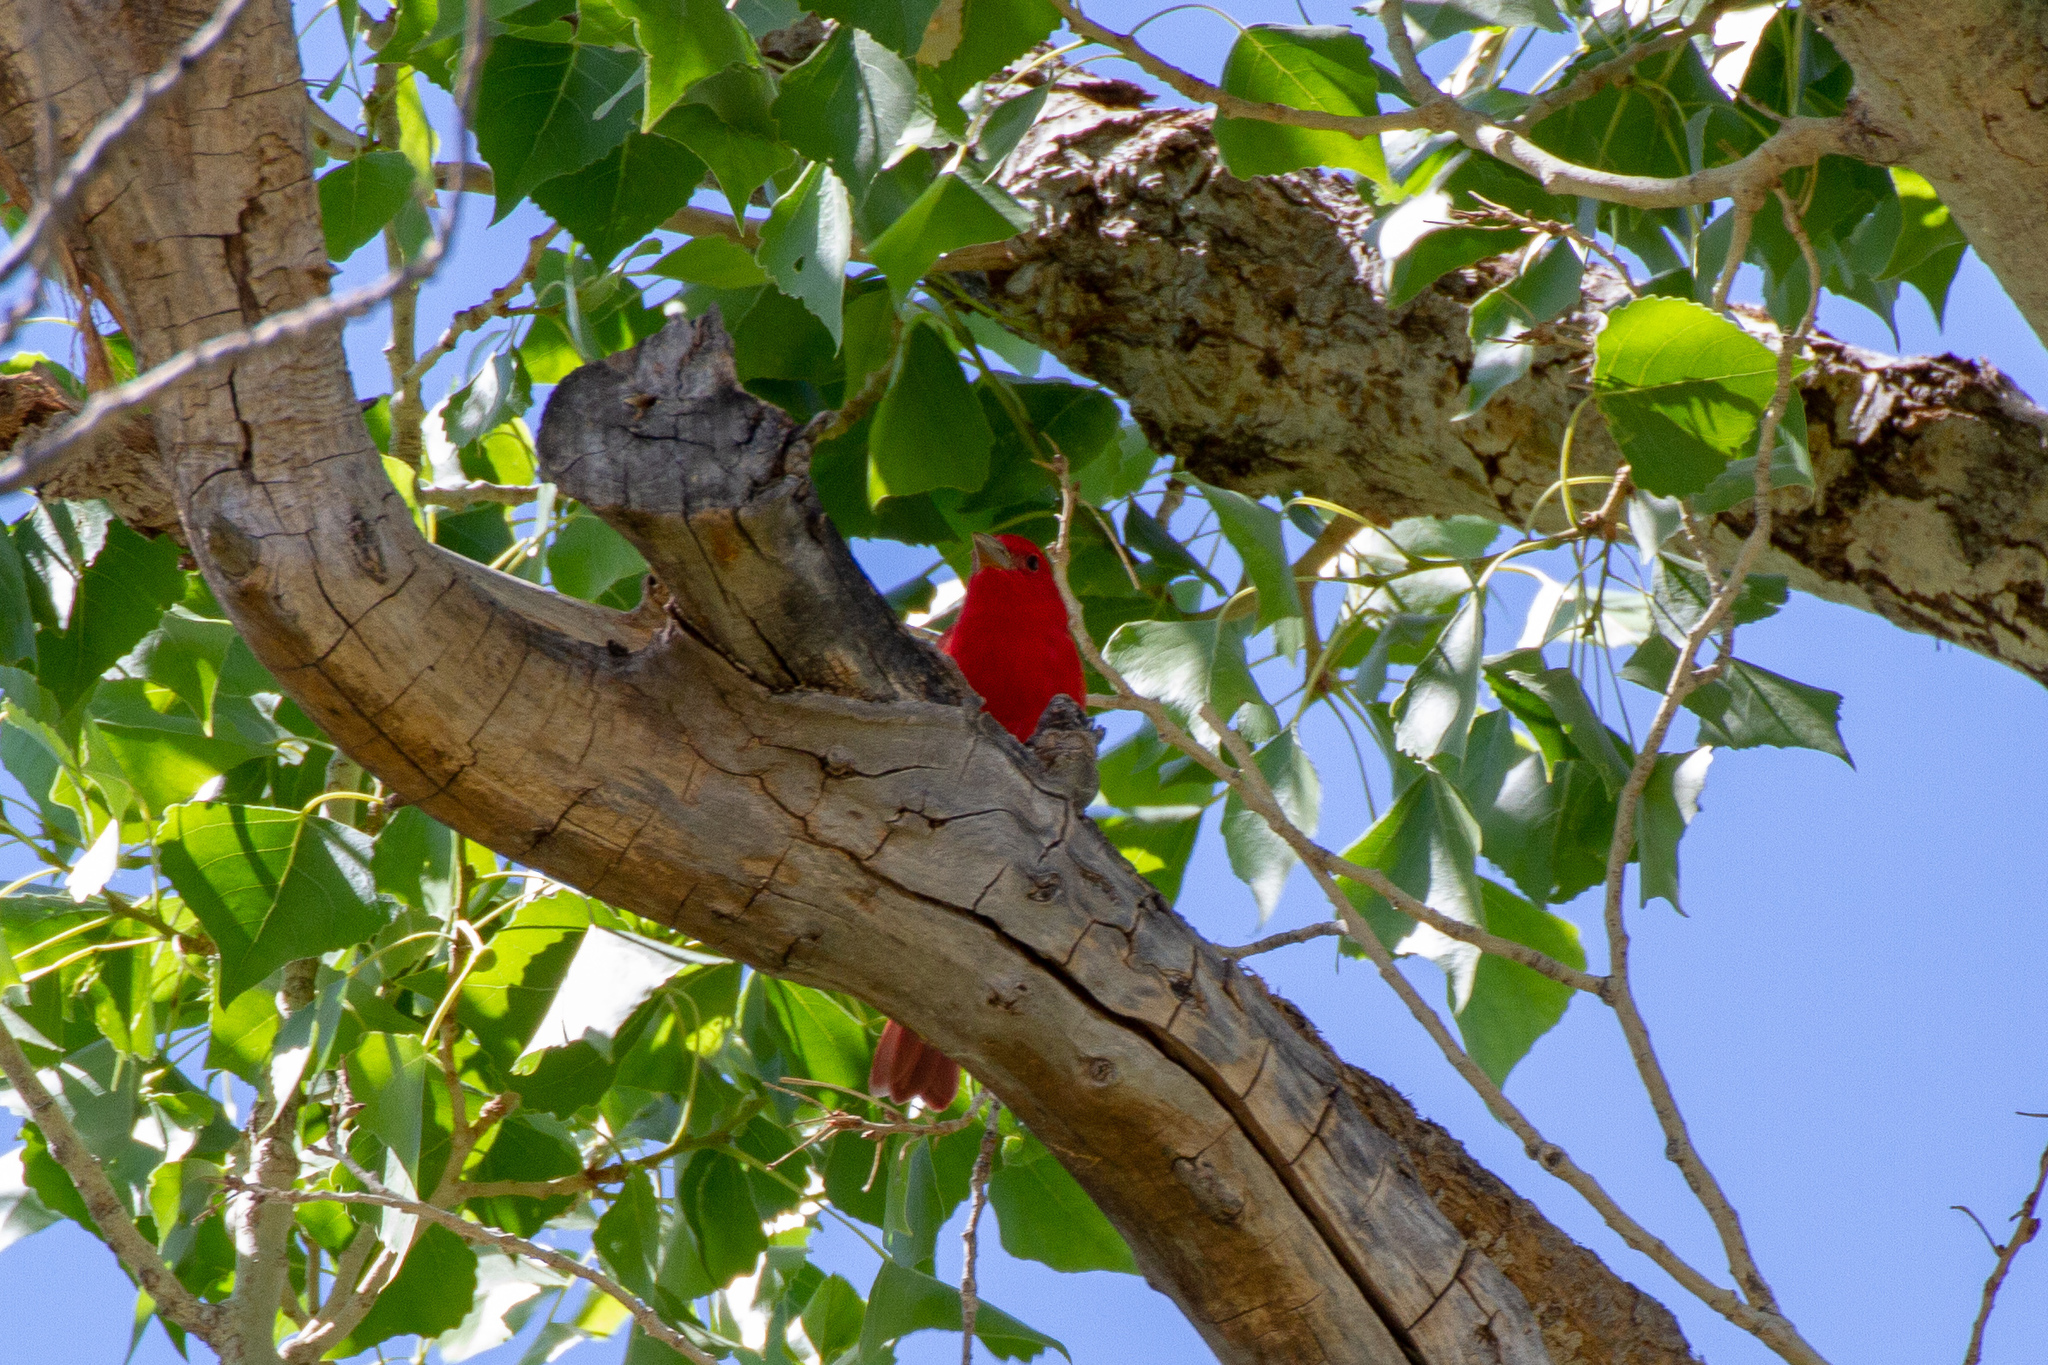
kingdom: Animalia
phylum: Chordata
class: Aves
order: Passeriformes
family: Cardinalidae
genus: Piranga
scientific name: Piranga rubra
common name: Summer tanager
